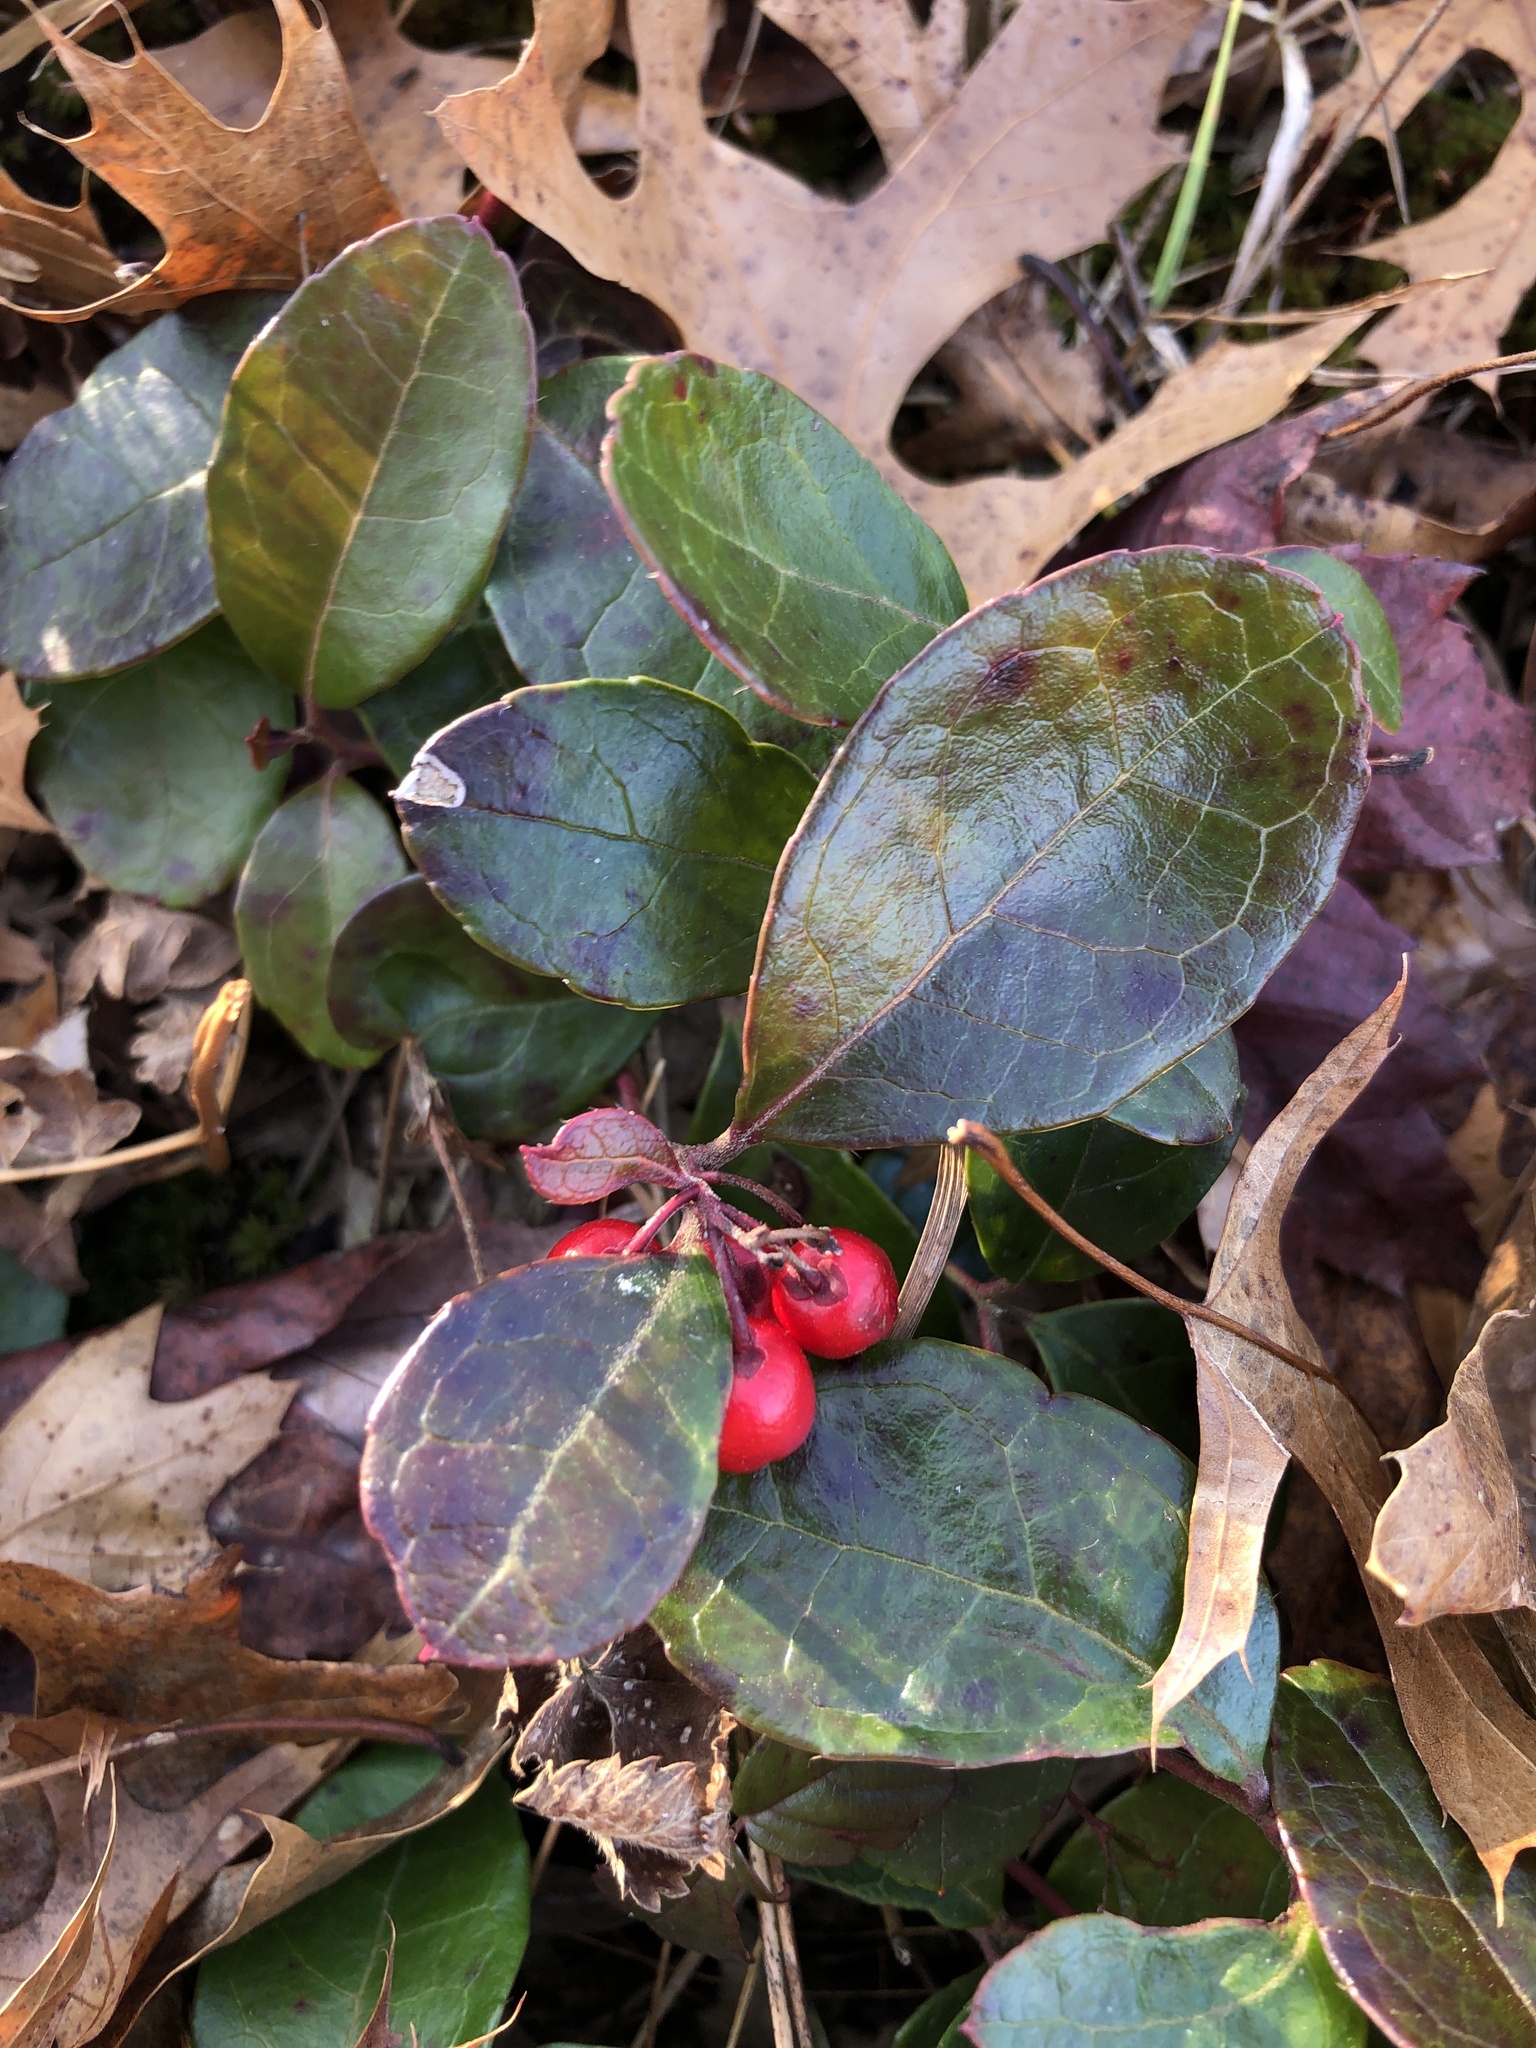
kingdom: Plantae
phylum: Tracheophyta
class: Magnoliopsida
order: Ericales
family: Ericaceae
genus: Gaultheria
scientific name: Gaultheria procumbens
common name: Checkerberry
